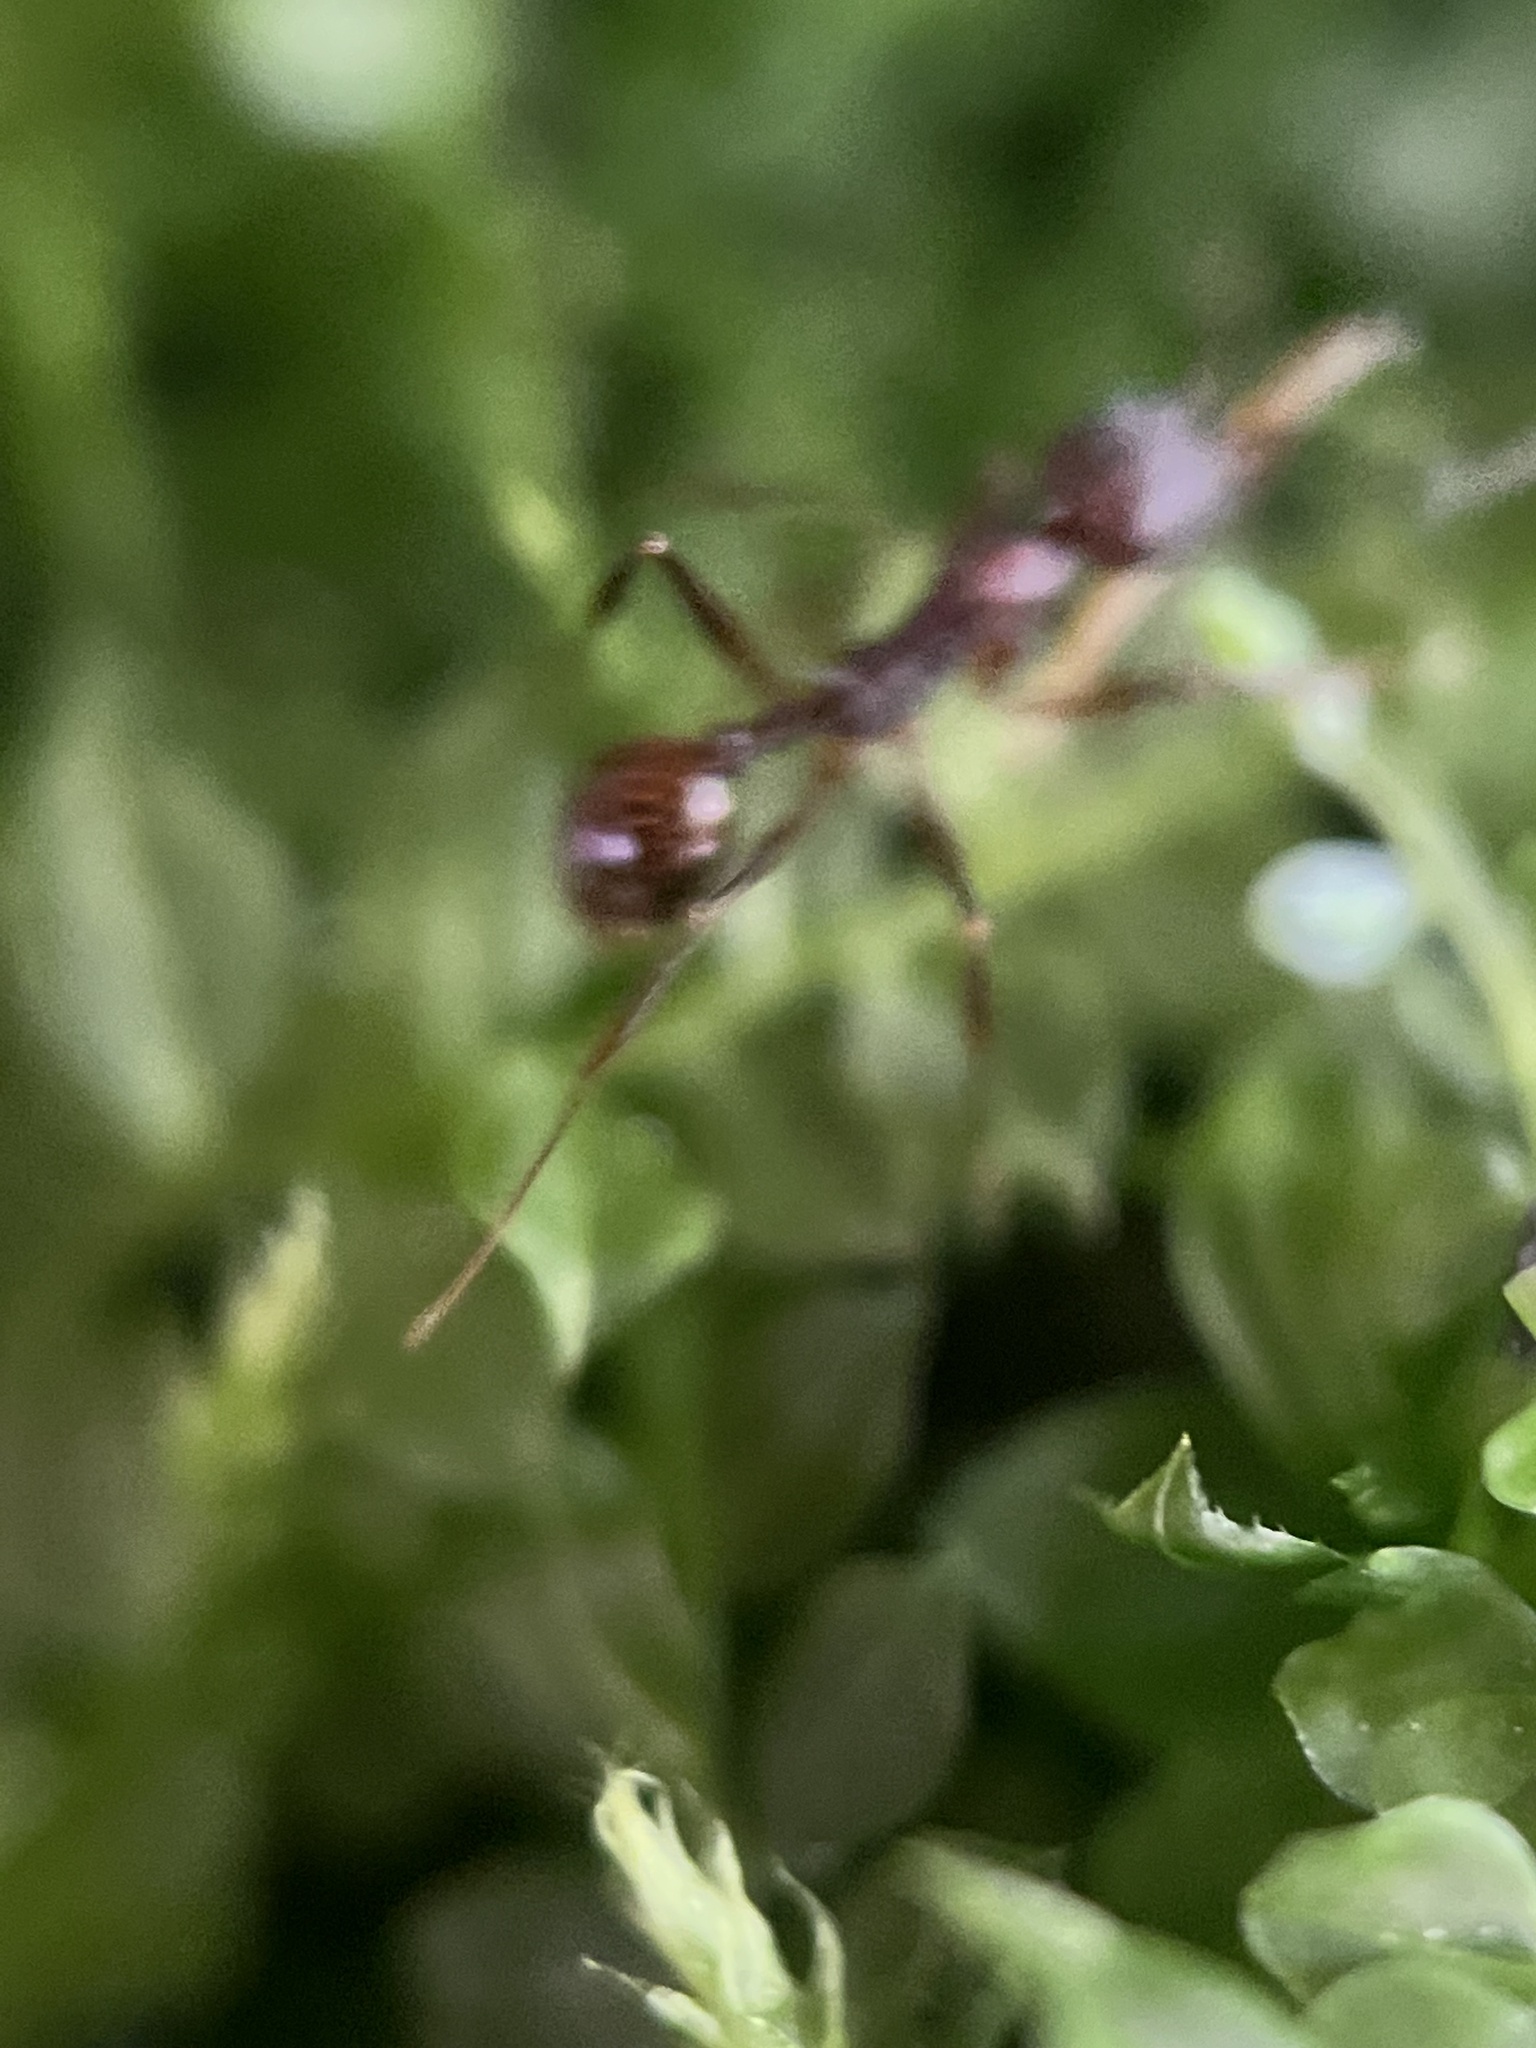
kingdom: Animalia
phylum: Arthropoda
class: Insecta
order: Hymenoptera
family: Formicidae
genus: Aphaenogaster
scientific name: Aphaenogaster fulva
